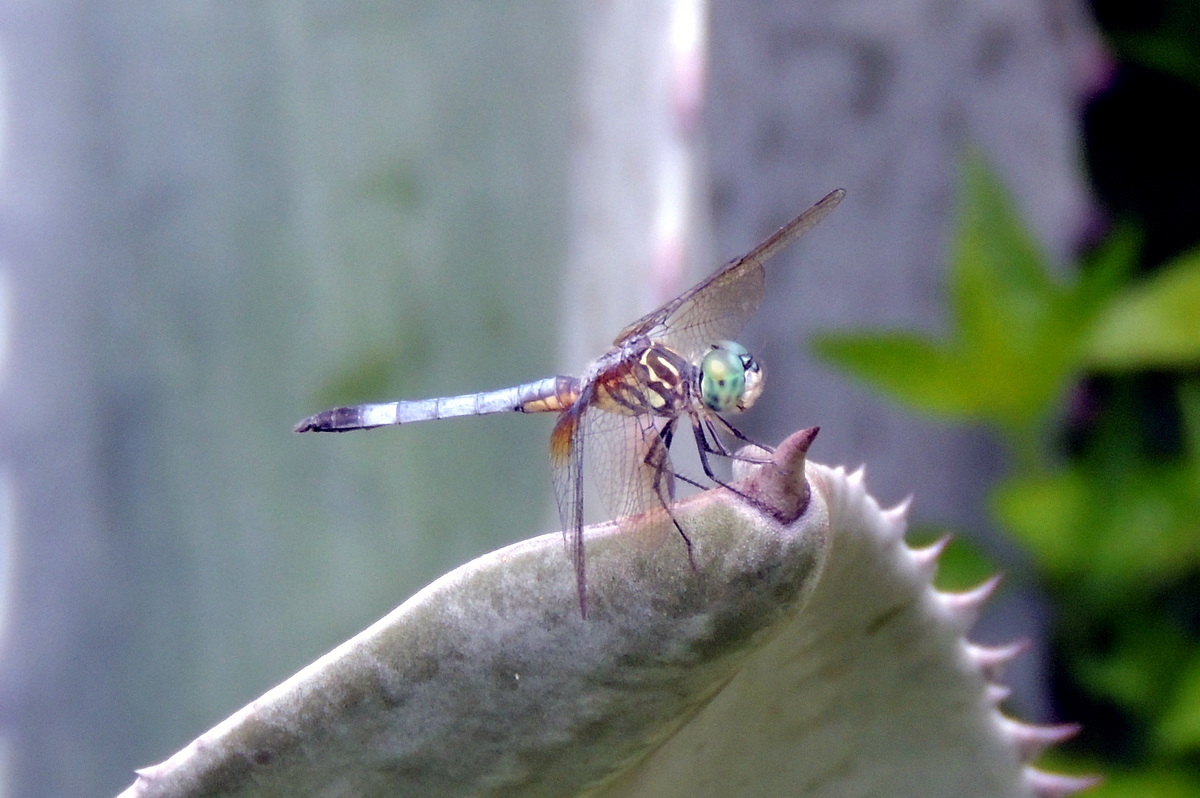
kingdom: Animalia
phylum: Arthropoda
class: Insecta
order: Odonata
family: Libellulidae
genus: Pachydiplax
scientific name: Pachydiplax longipennis
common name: Blue dasher
